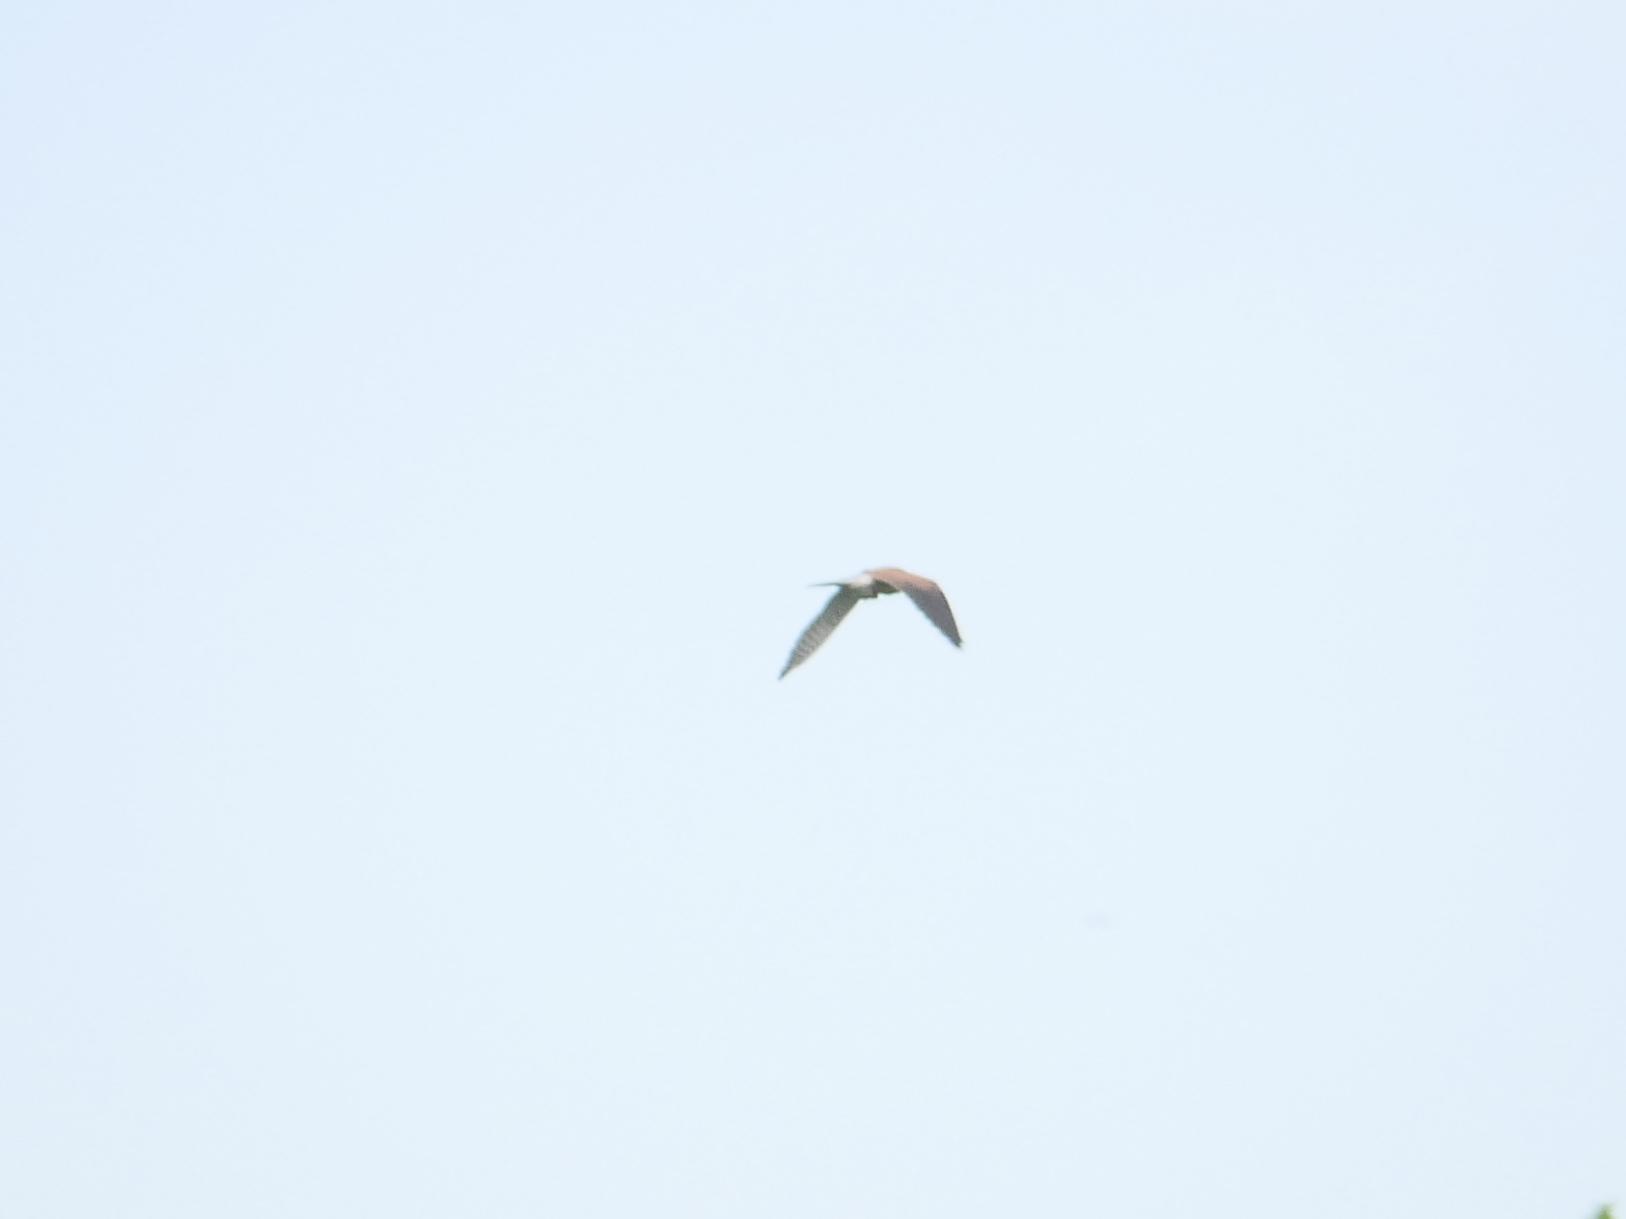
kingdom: Animalia
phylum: Chordata
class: Aves
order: Falconiformes
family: Falconidae
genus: Falco
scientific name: Falco tinnunculus
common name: Common kestrel
